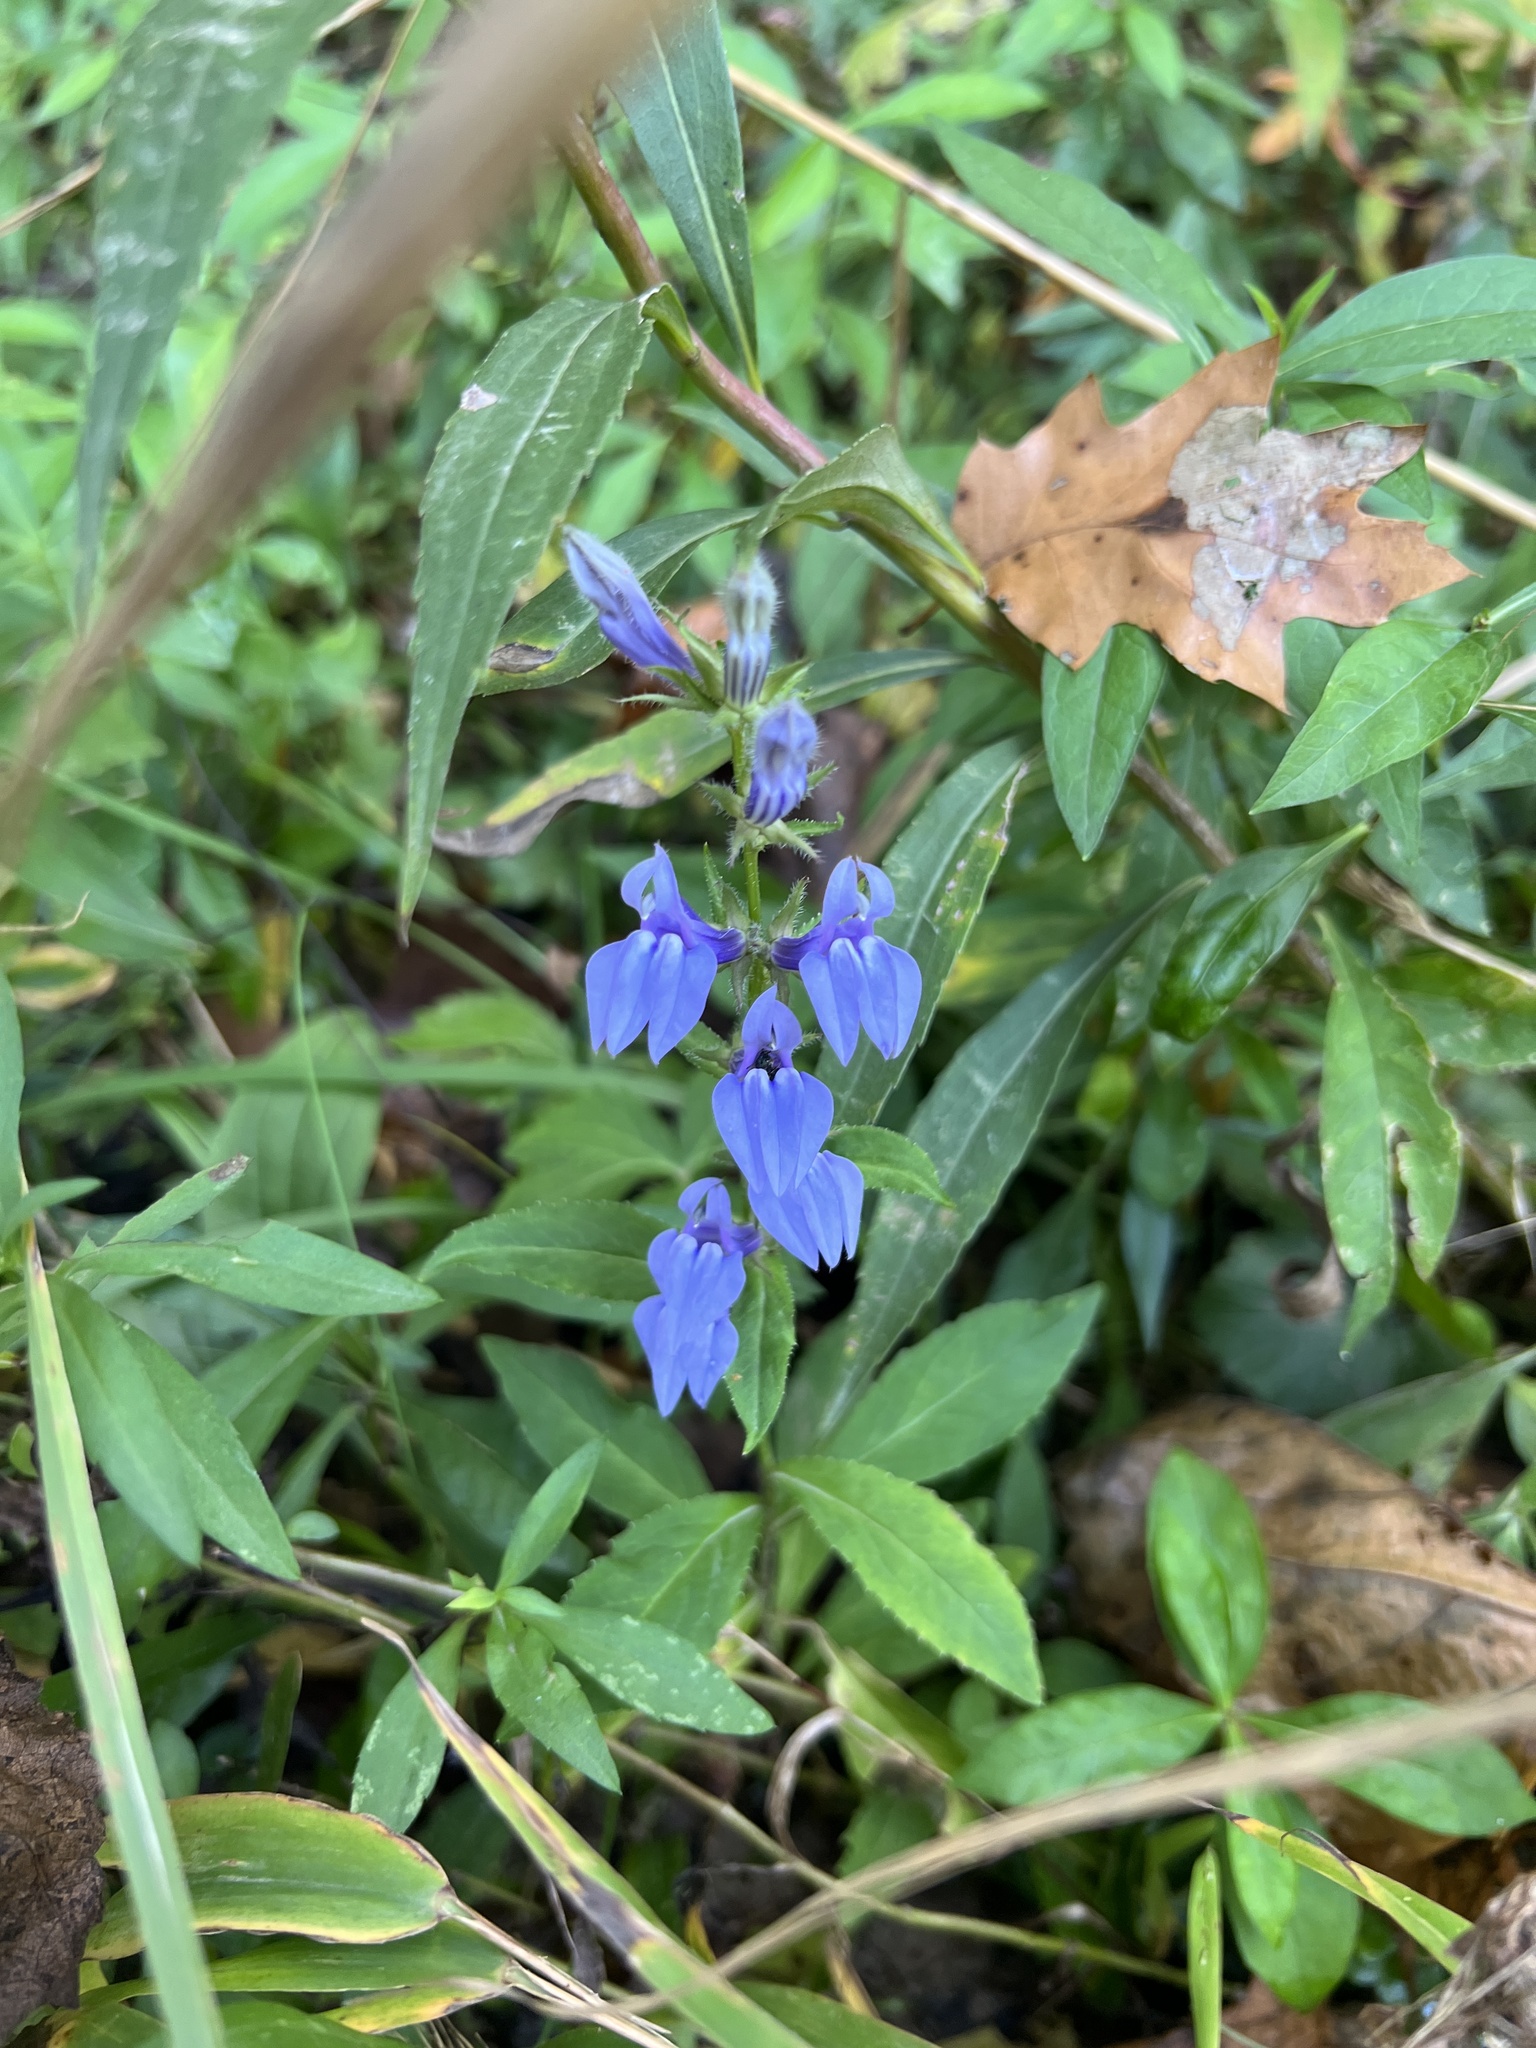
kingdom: Plantae
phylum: Tracheophyta
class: Magnoliopsida
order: Asterales
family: Campanulaceae
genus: Lobelia
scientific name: Lobelia siphilitica
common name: Great lobelia
